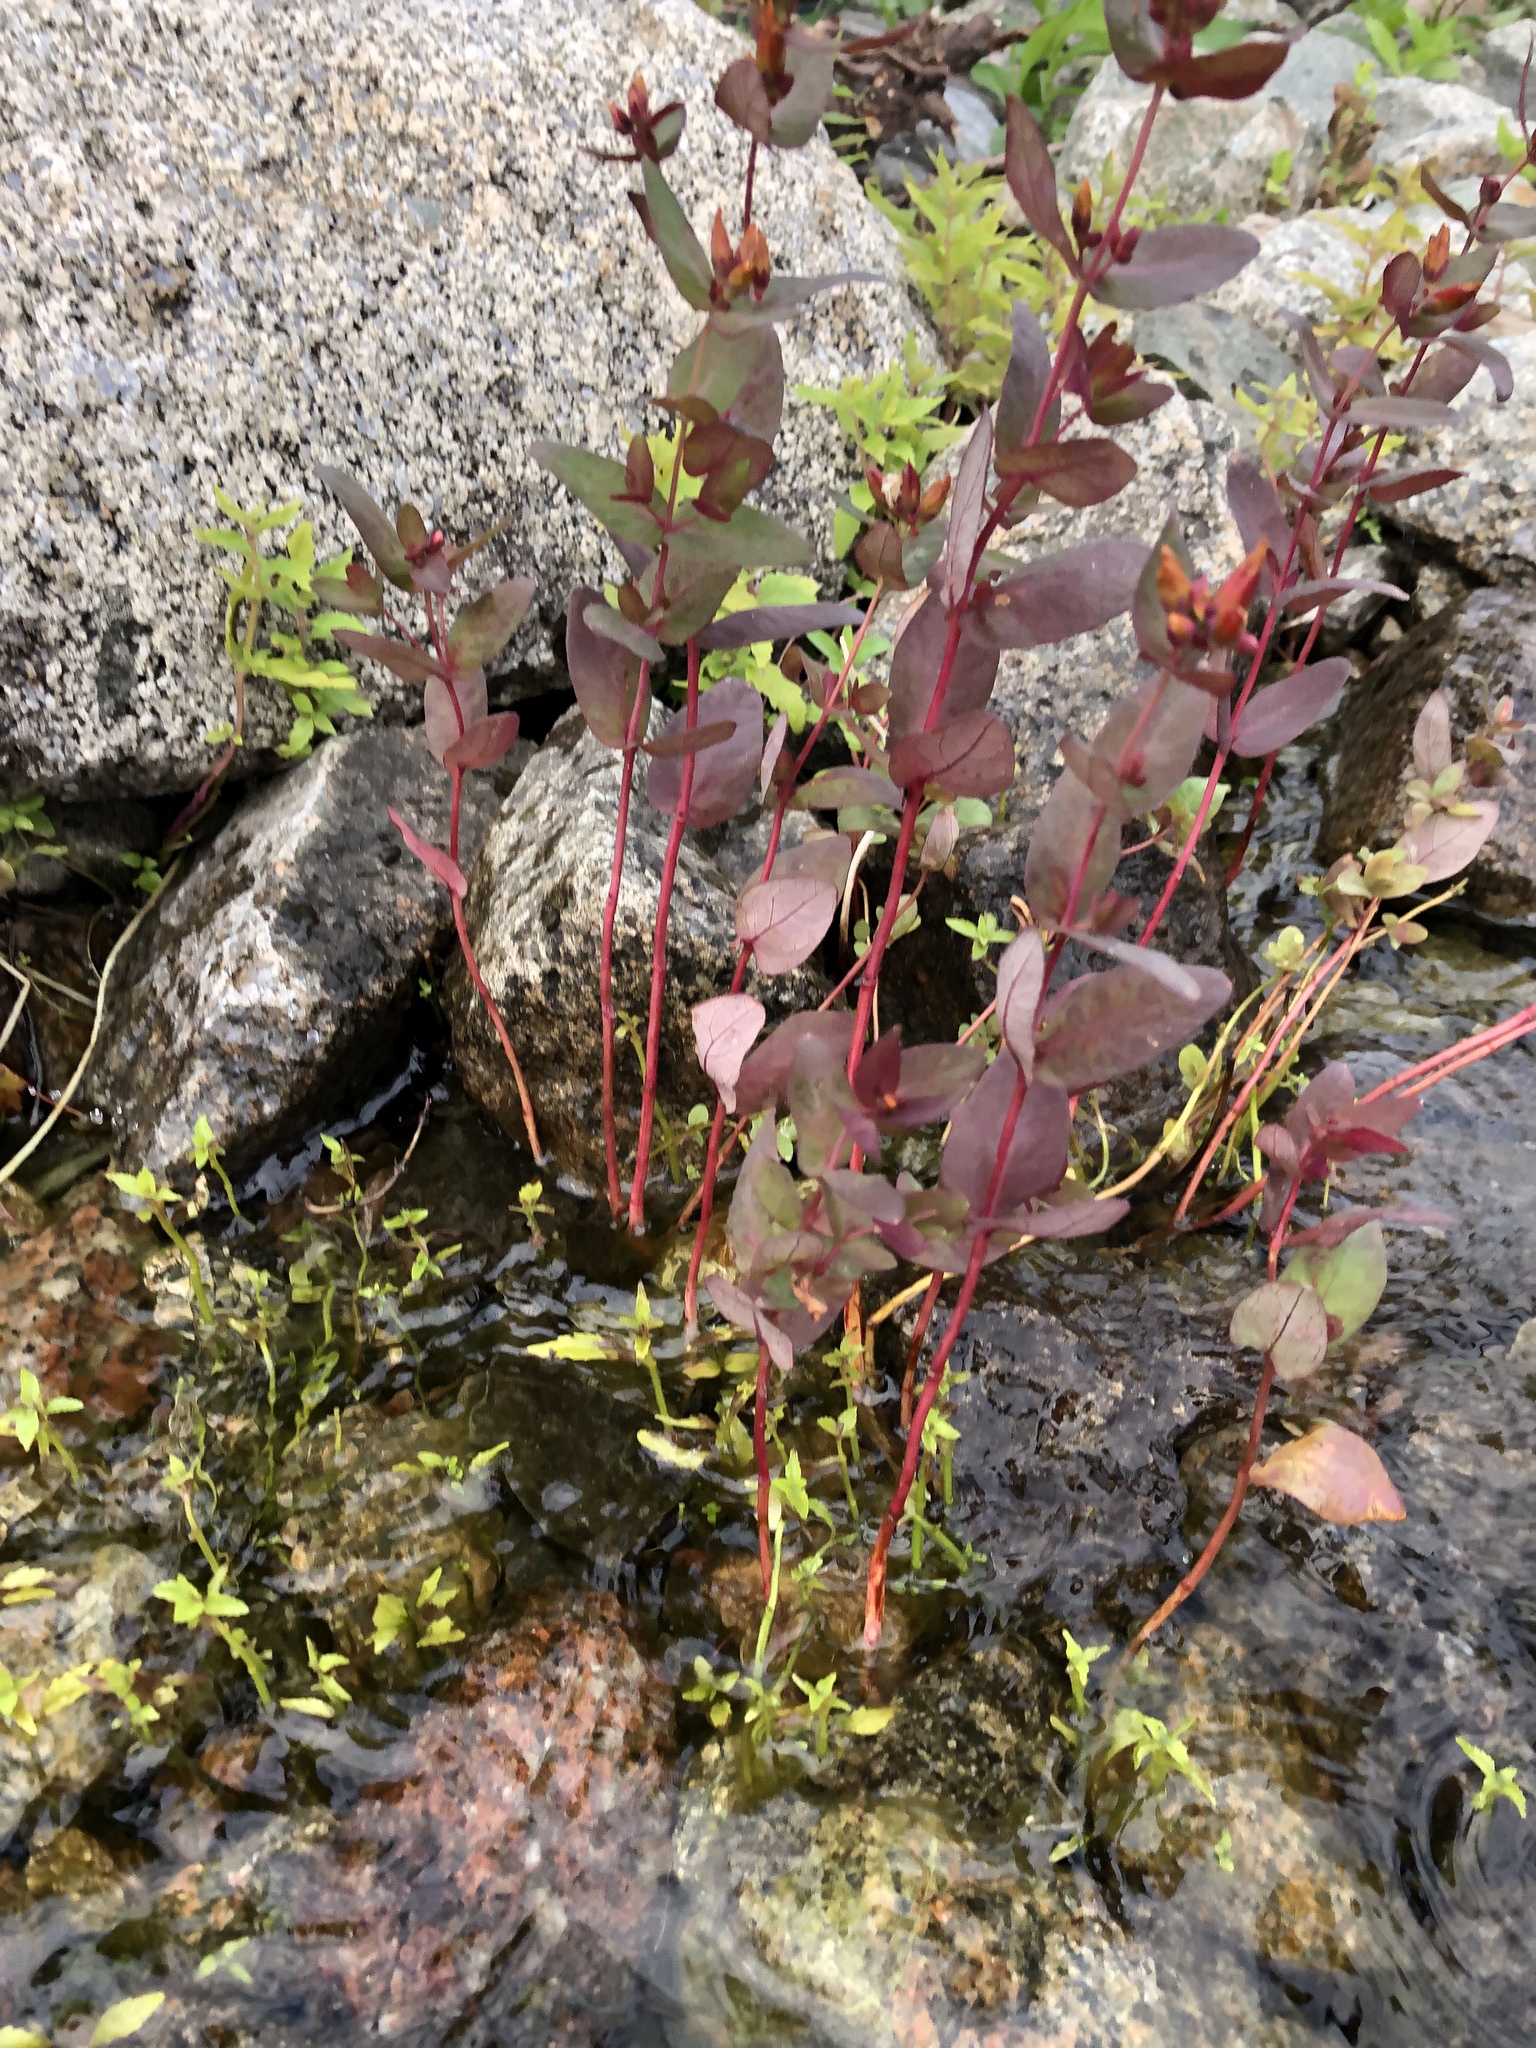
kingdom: Plantae
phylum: Tracheophyta
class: Magnoliopsida
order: Malpighiales
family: Hypericaceae
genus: Triadenum
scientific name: Triadenum fraseri
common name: Fraser's marsh st. johnswort
